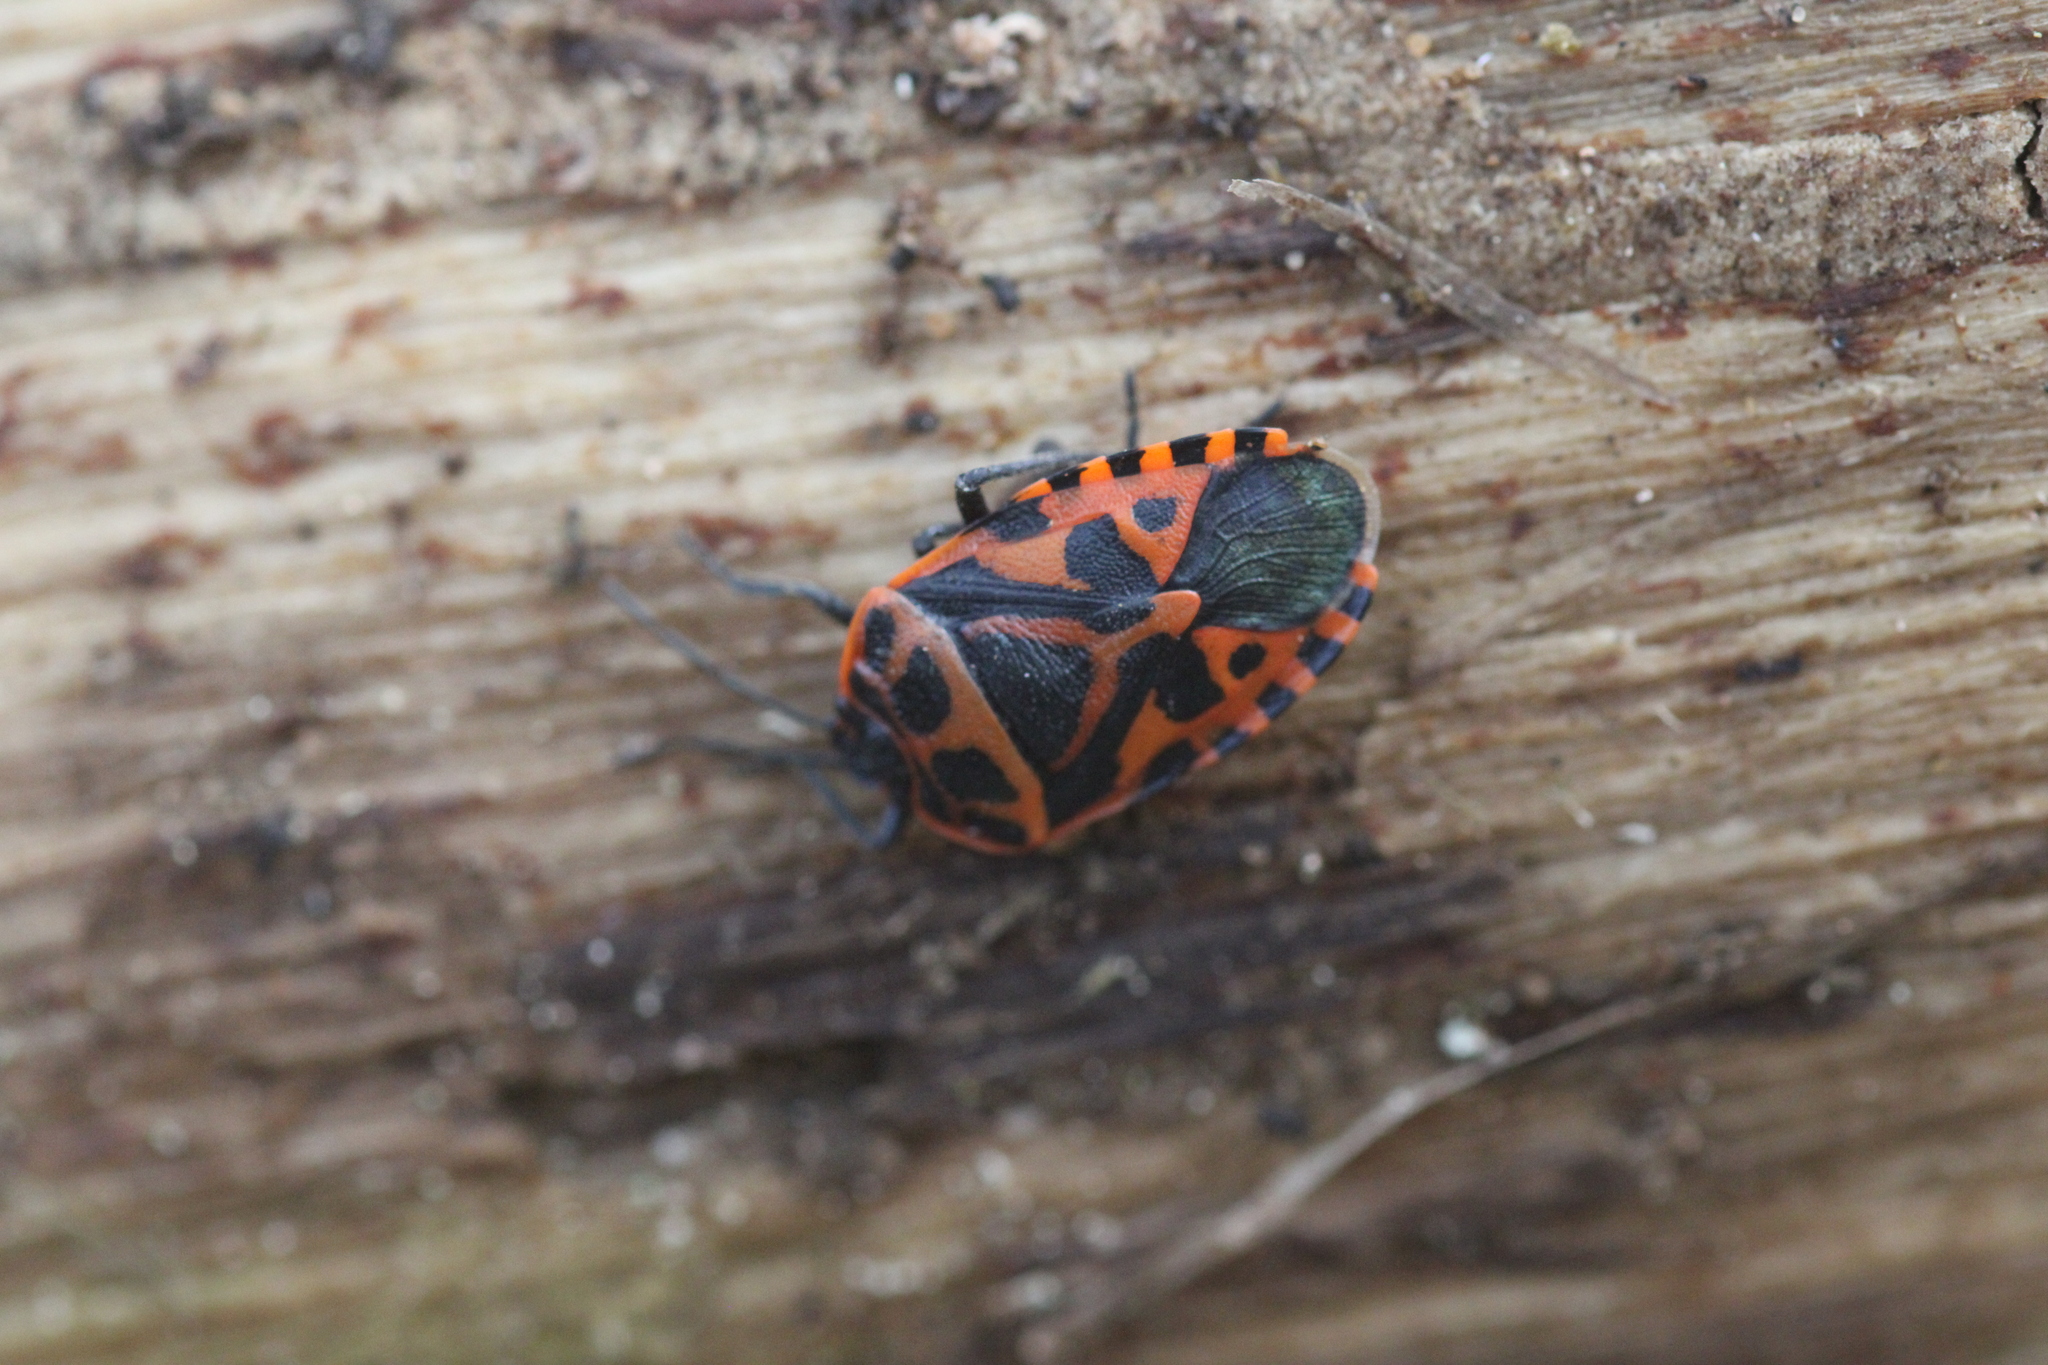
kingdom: Animalia
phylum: Arthropoda
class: Insecta
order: Hemiptera
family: Pentatomidae
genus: Eurydema
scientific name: Eurydema ventralis
